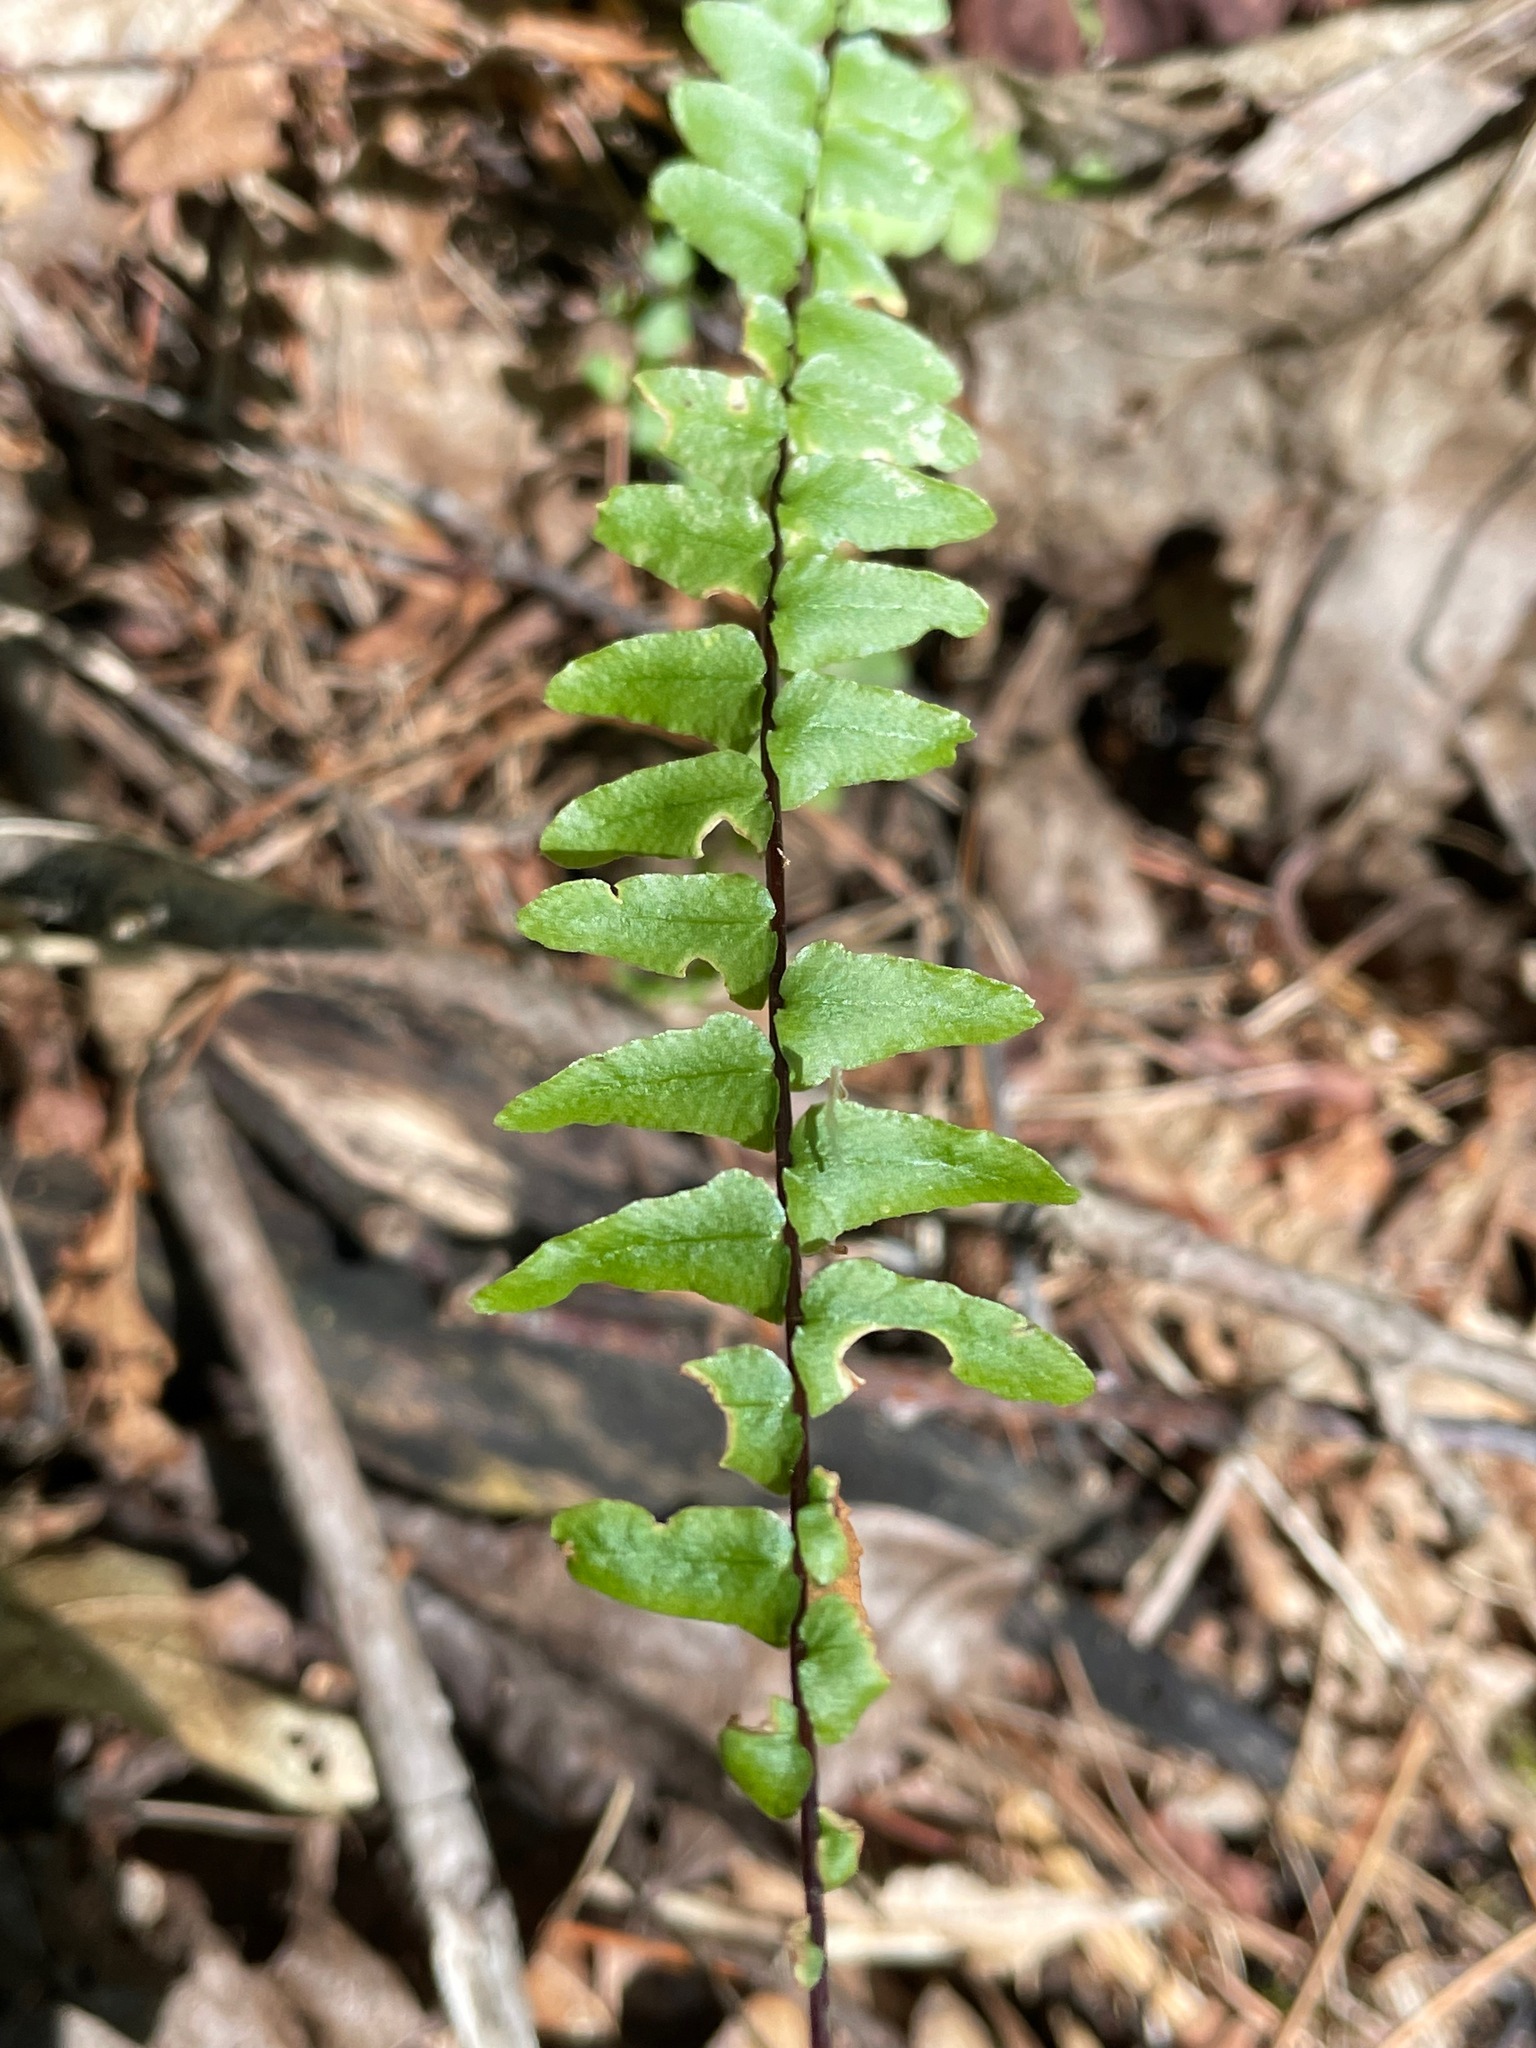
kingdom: Plantae
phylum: Tracheophyta
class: Polypodiopsida
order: Polypodiales
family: Aspleniaceae
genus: Asplenium
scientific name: Asplenium platyneuron
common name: Ebony spleenwort
